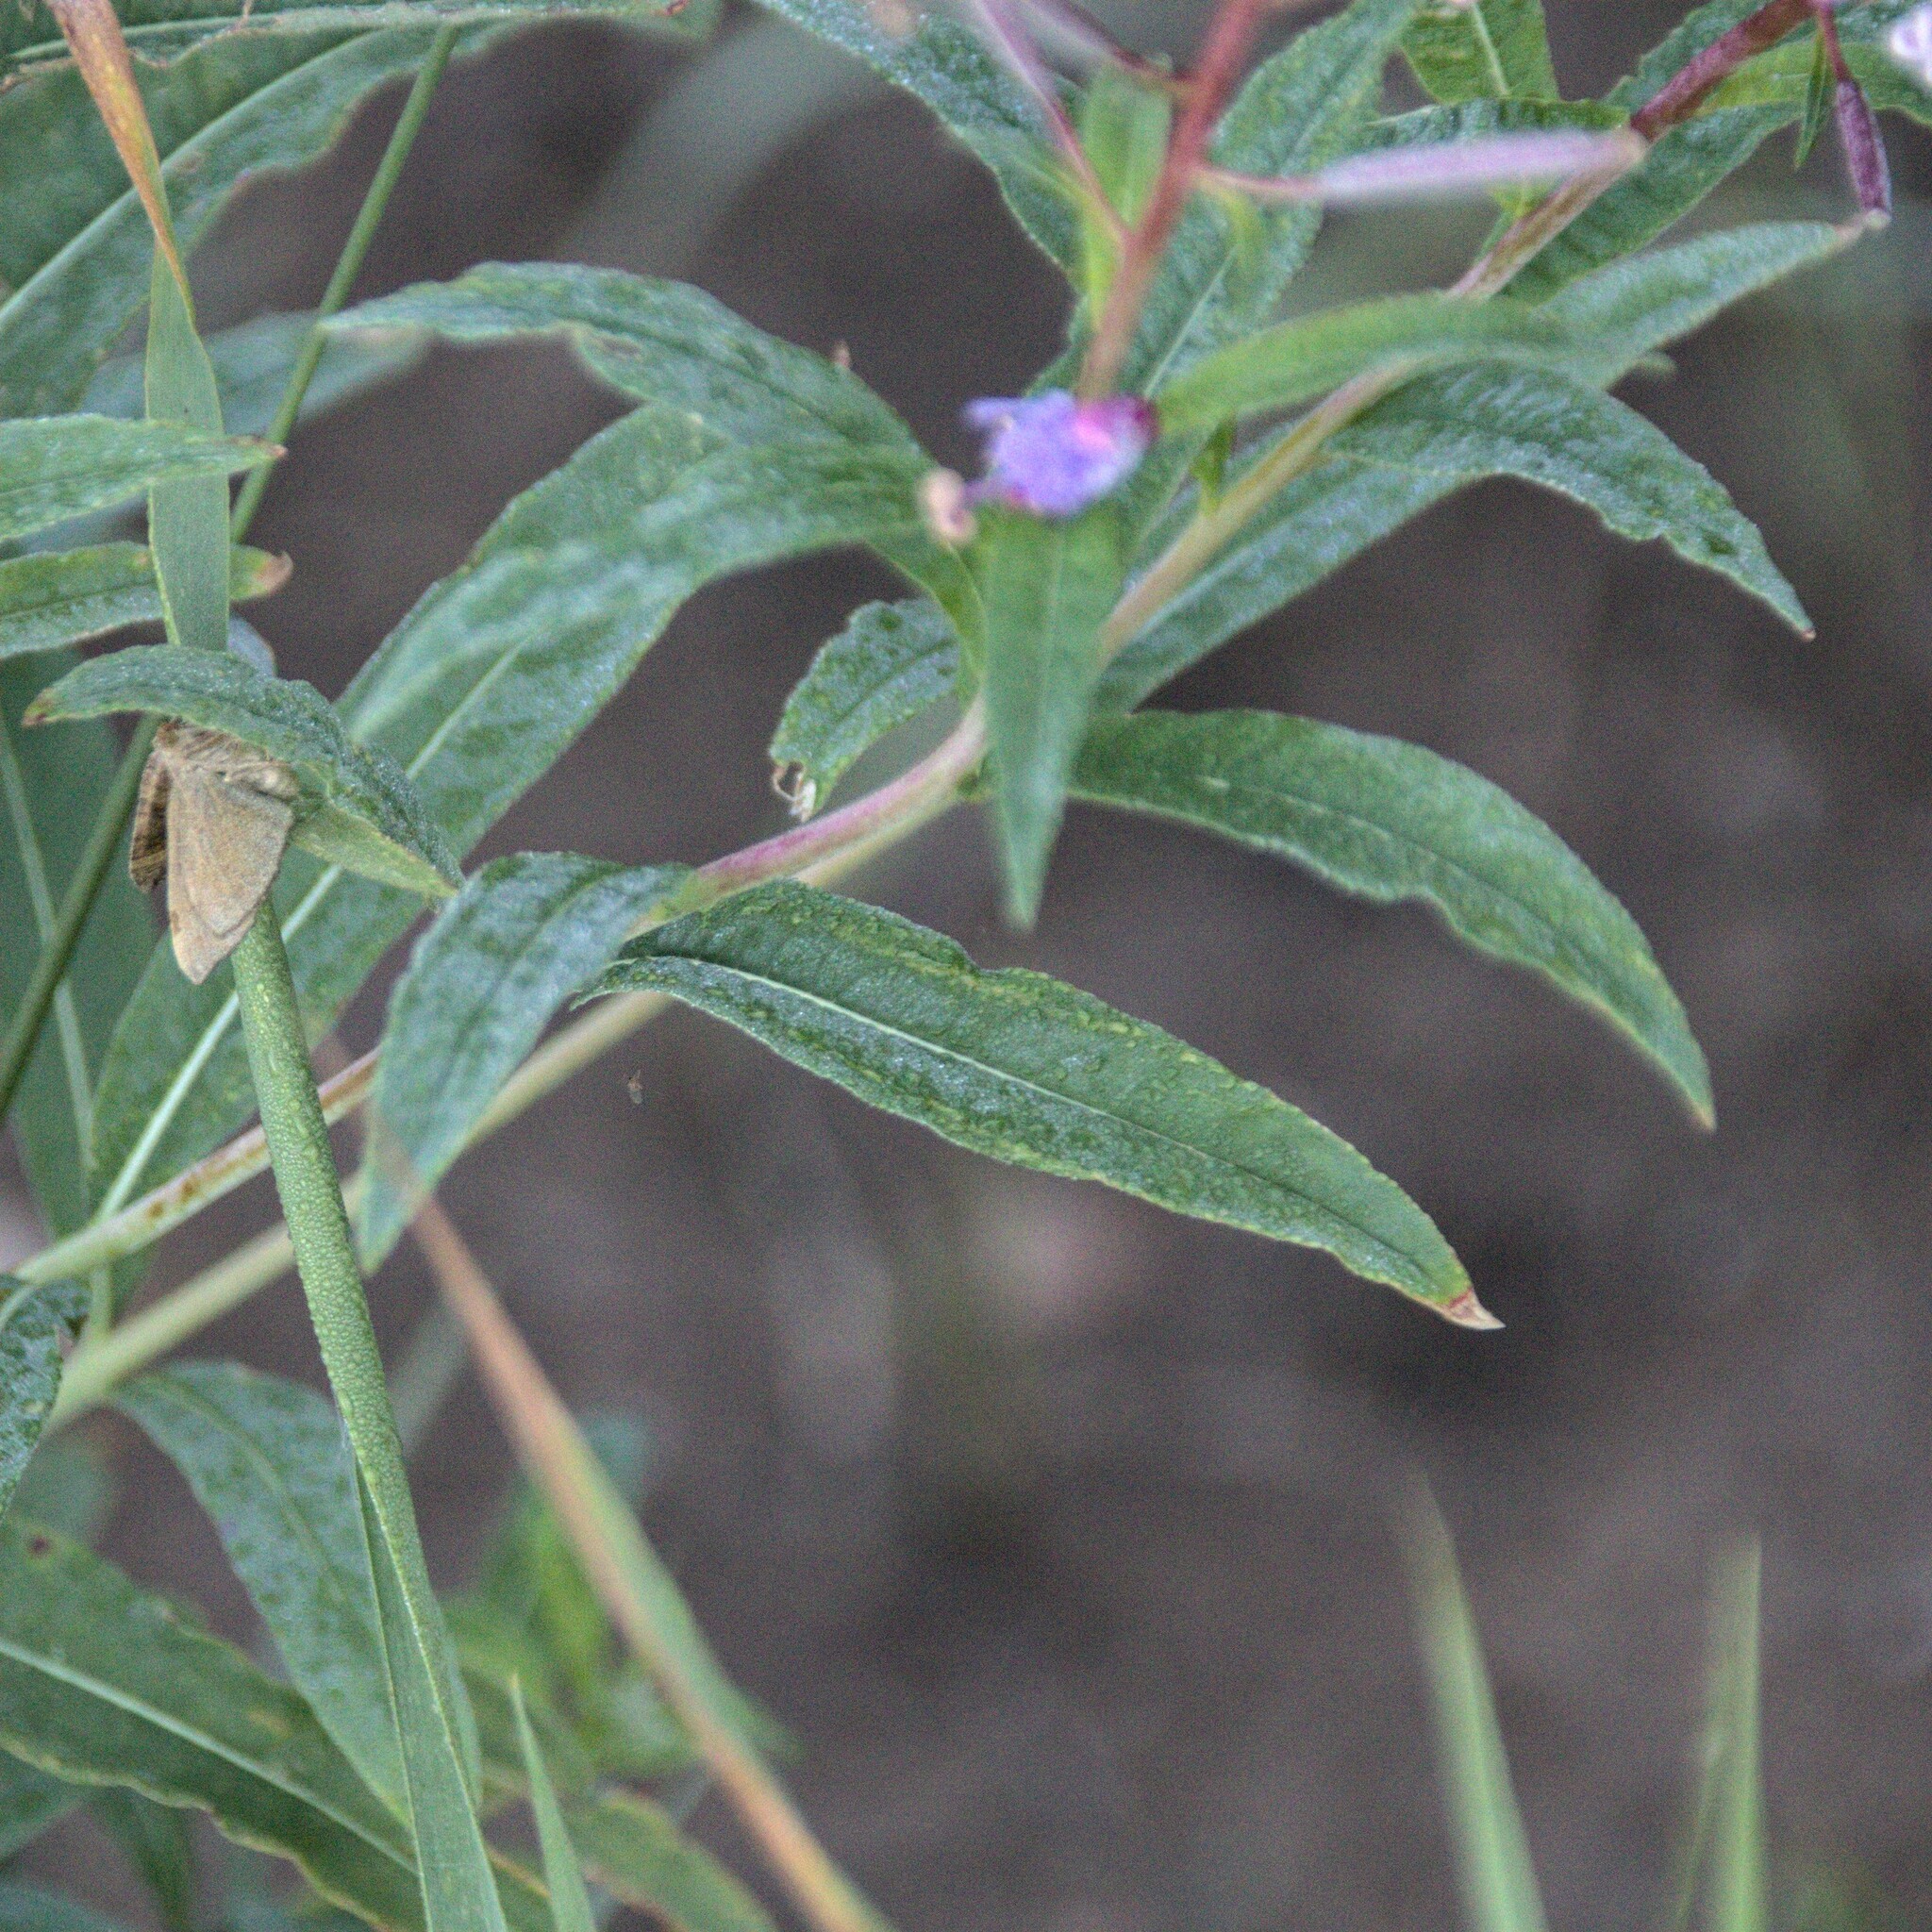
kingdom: Plantae
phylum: Tracheophyta
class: Magnoliopsida
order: Myrtales
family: Onagraceae
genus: Chamaenerion
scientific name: Chamaenerion angustifolium
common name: Fireweed
